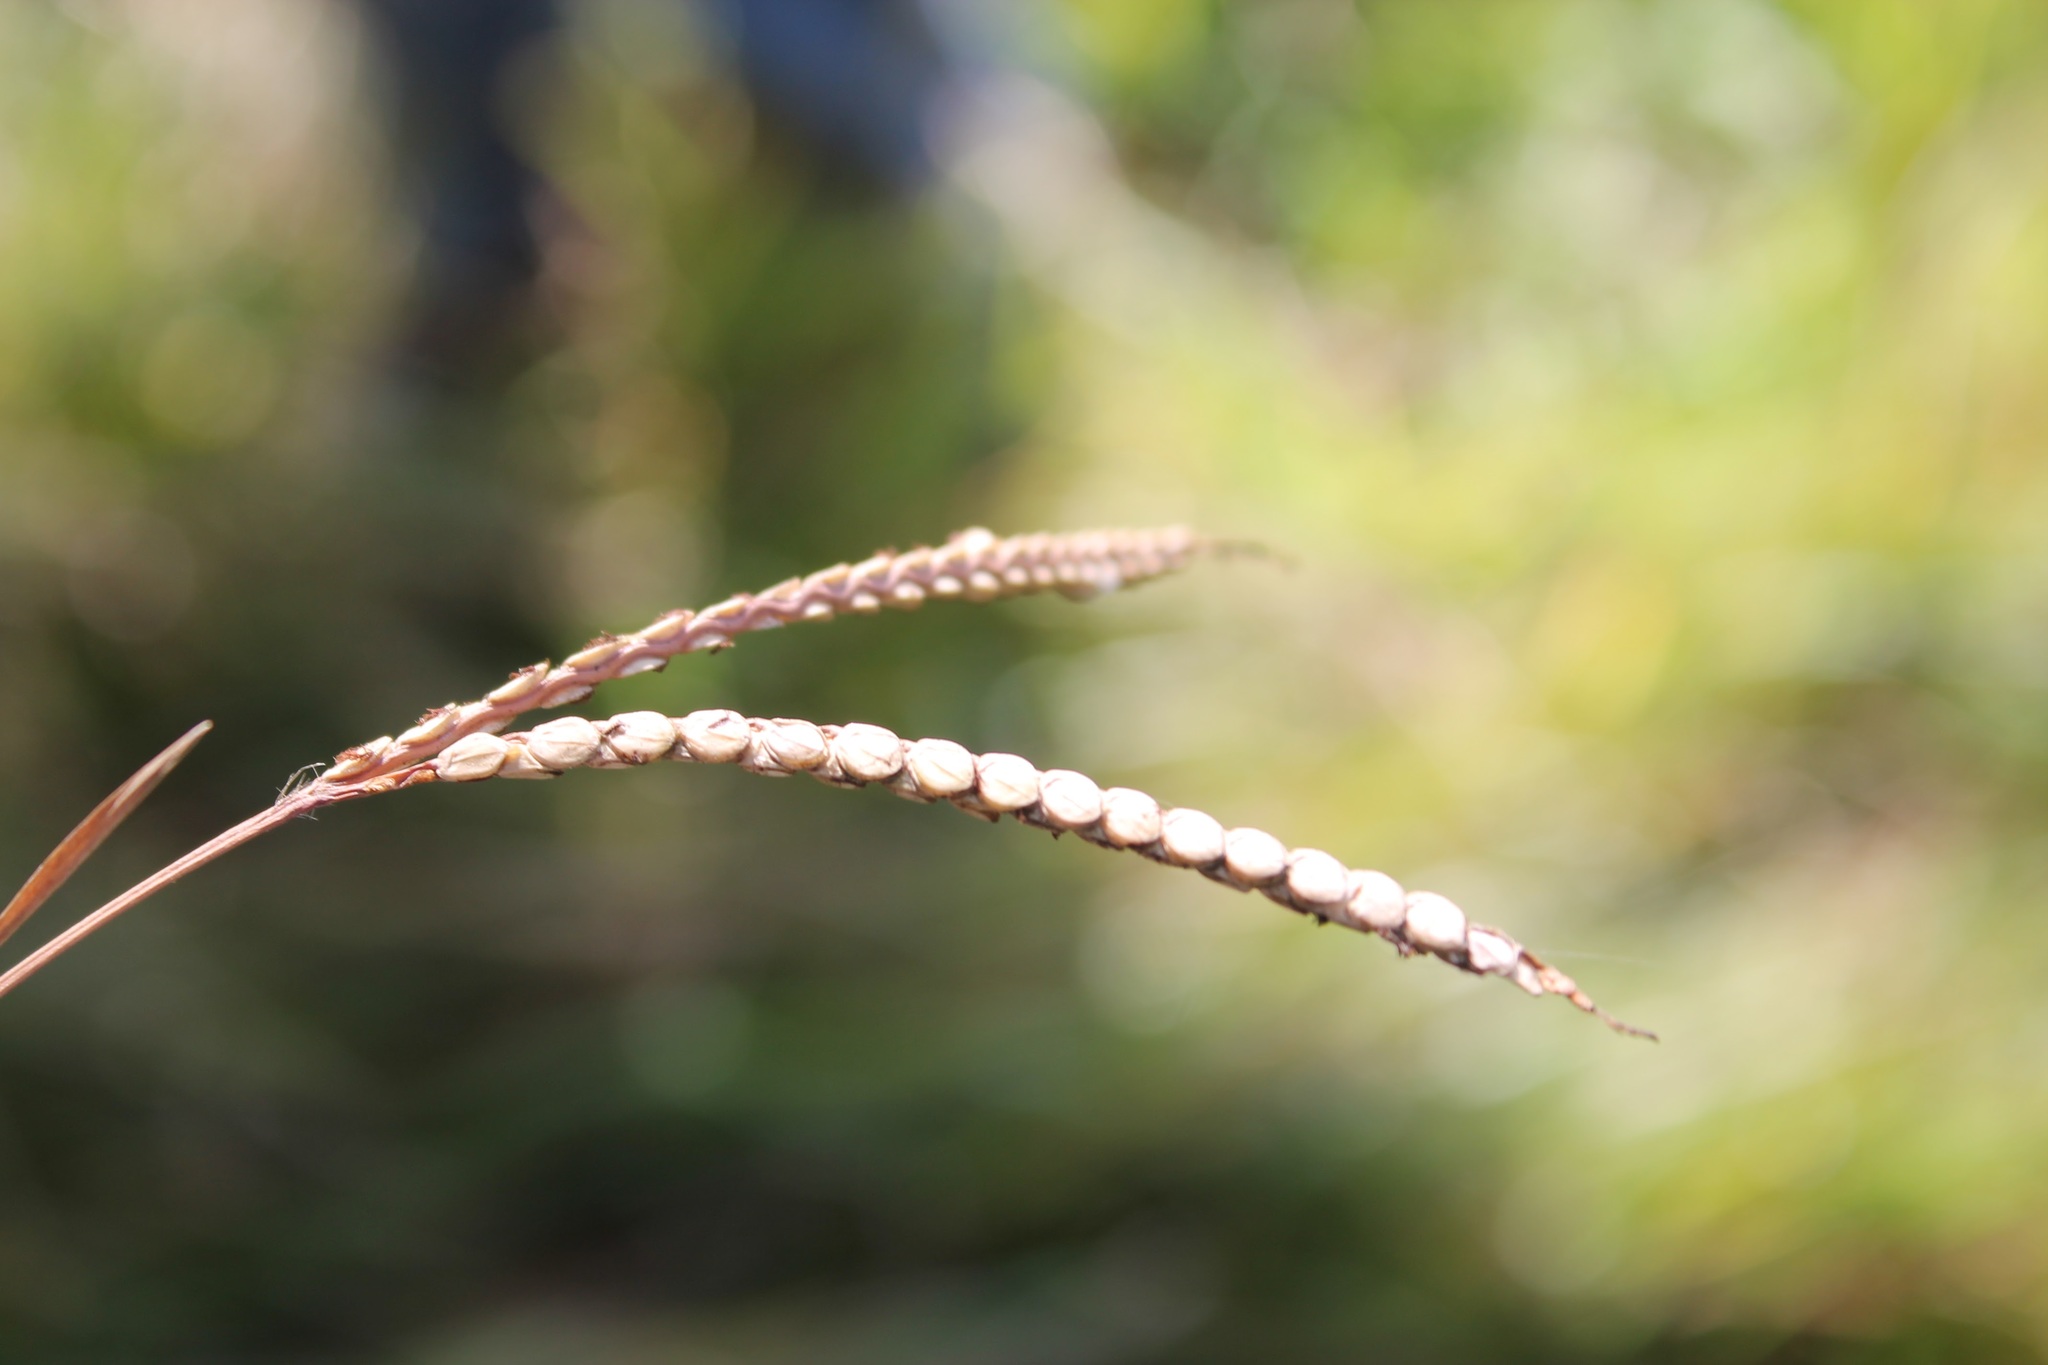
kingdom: Plantae
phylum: Tracheophyta
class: Liliopsida
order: Poales
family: Poaceae
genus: Paspalum
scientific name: Paspalum notatum
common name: Bahiagrass
